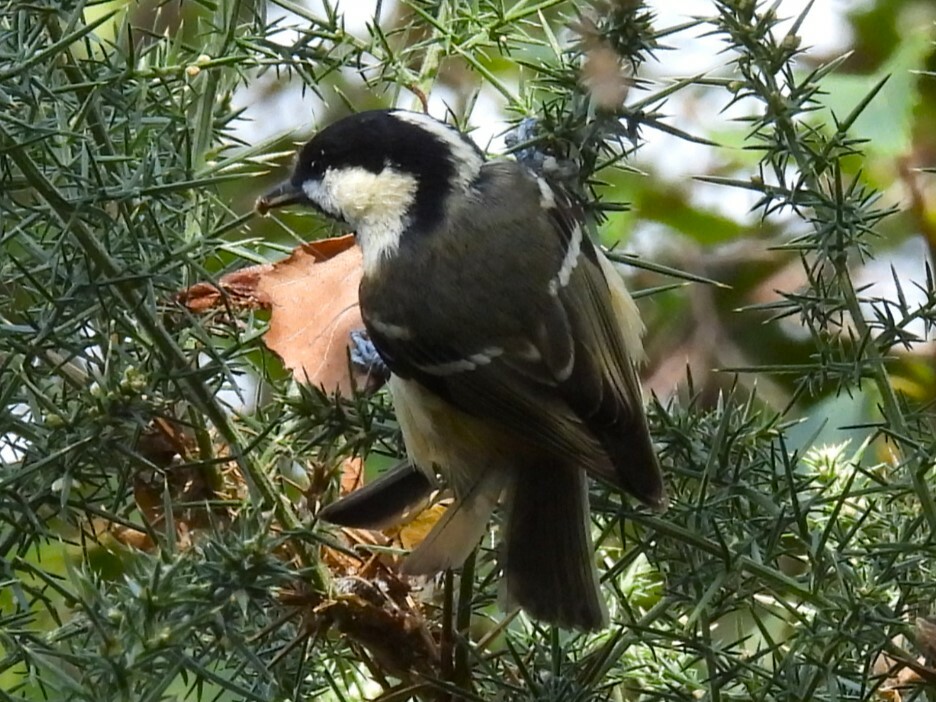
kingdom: Animalia
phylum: Chordata
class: Aves
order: Passeriformes
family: Paridae
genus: Periparus
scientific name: Periparus ater
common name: Coal tit
